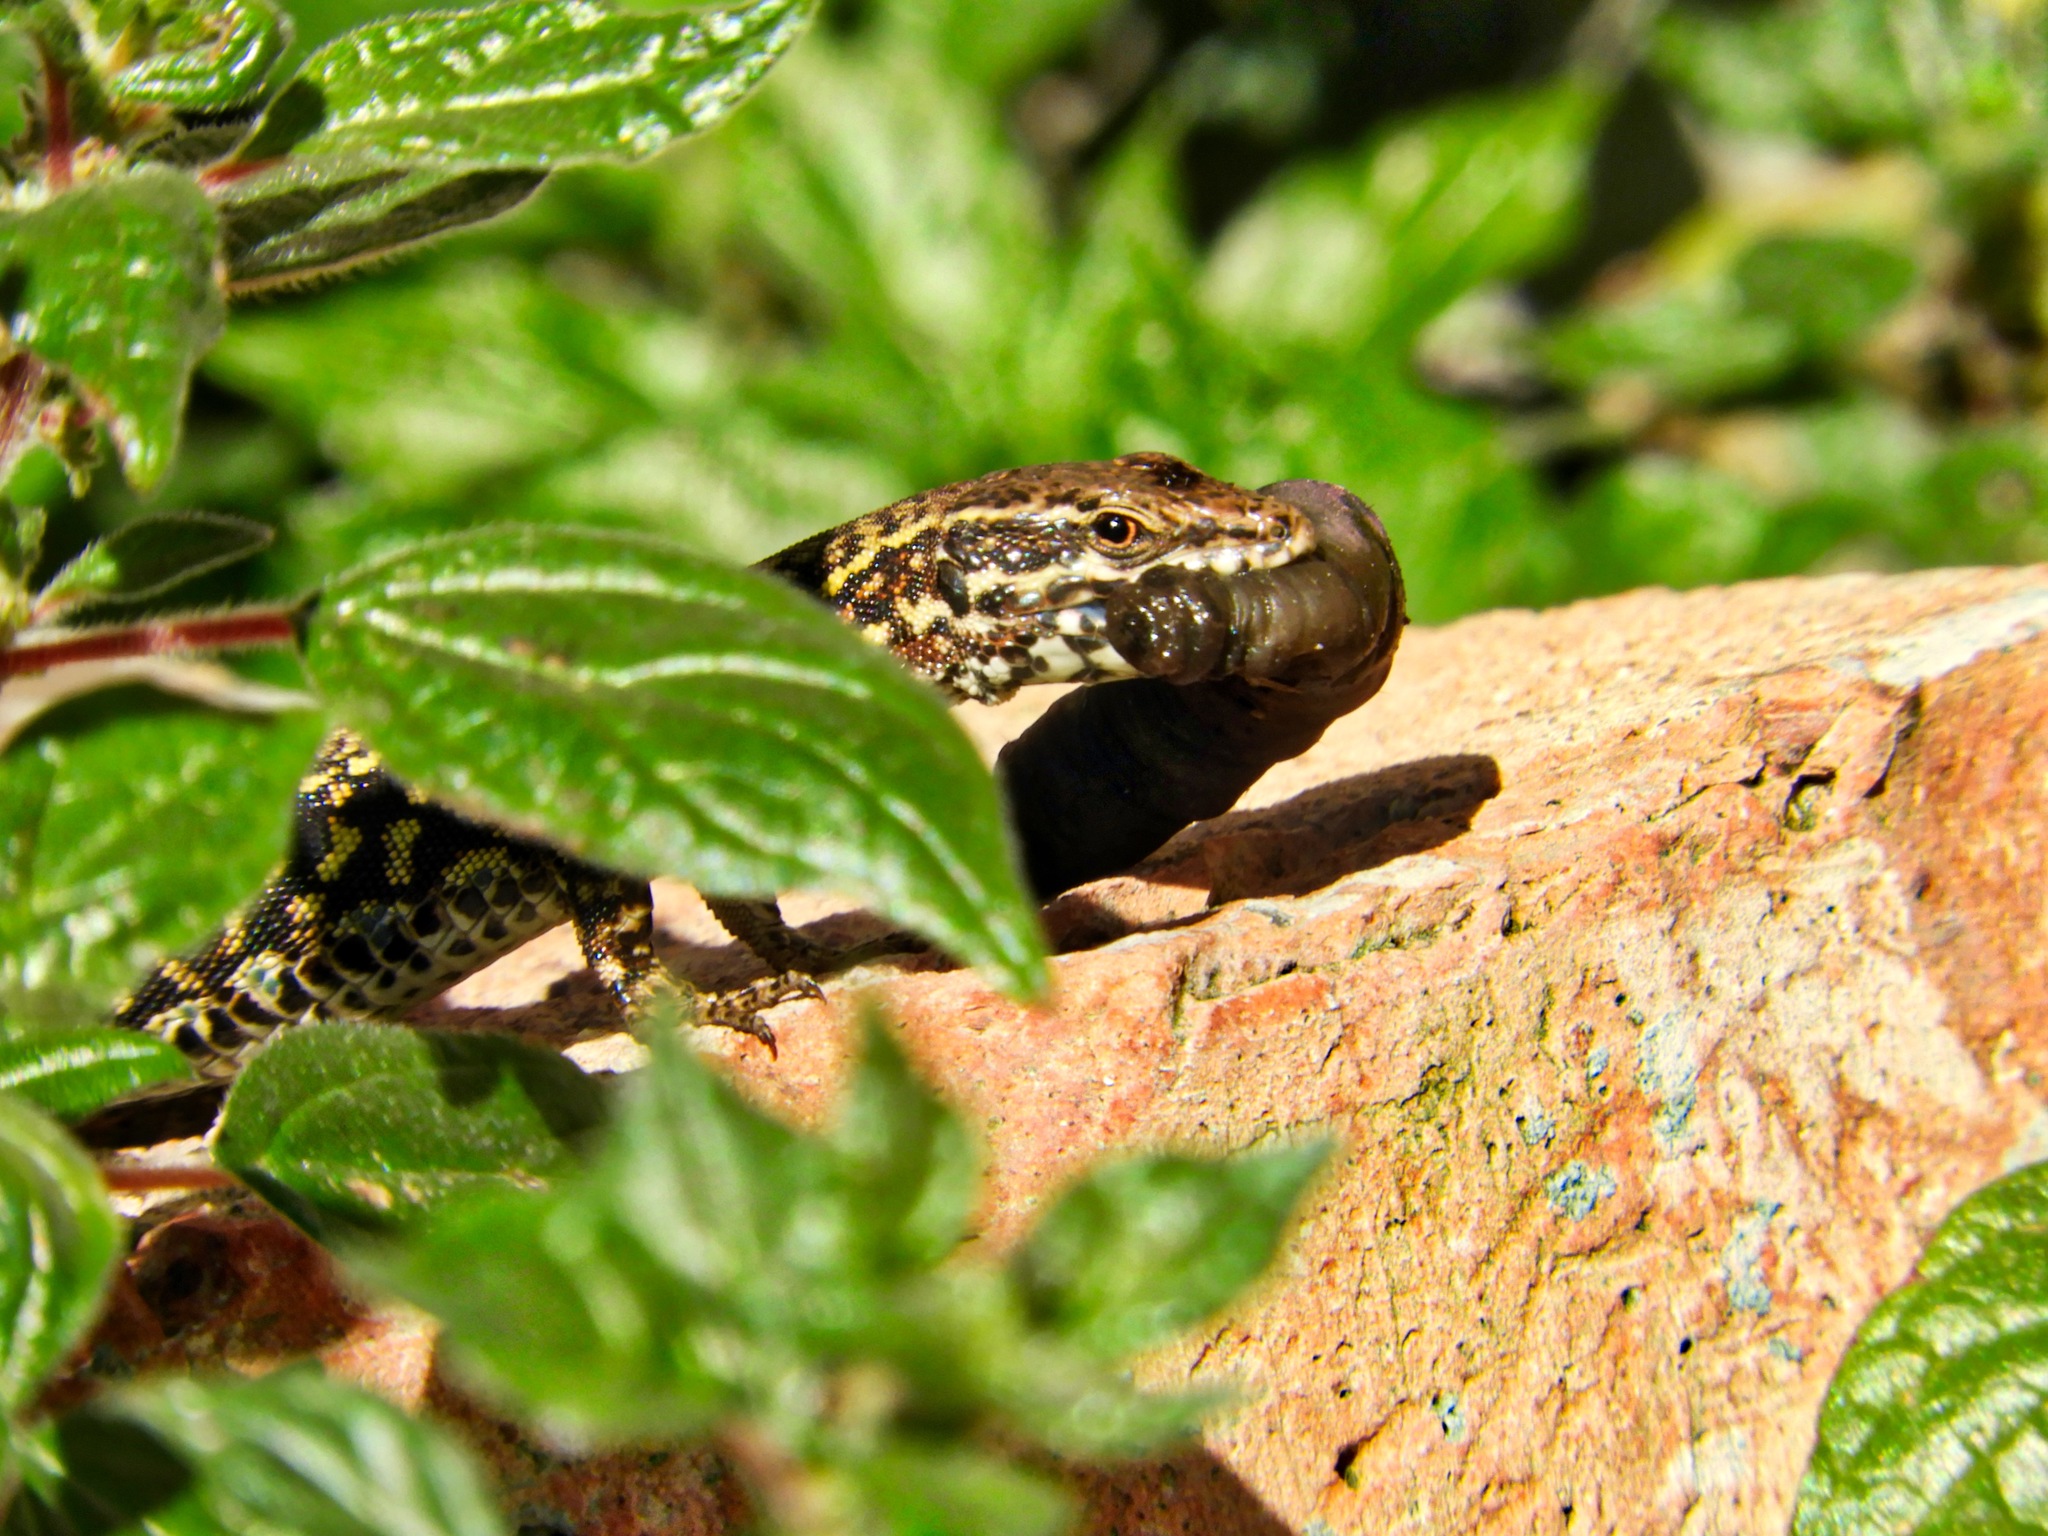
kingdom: Animalia
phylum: Chordata
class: Squamata
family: Lacertidae
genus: Podarcis
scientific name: Podarcis muralis
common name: Common wall lizard
